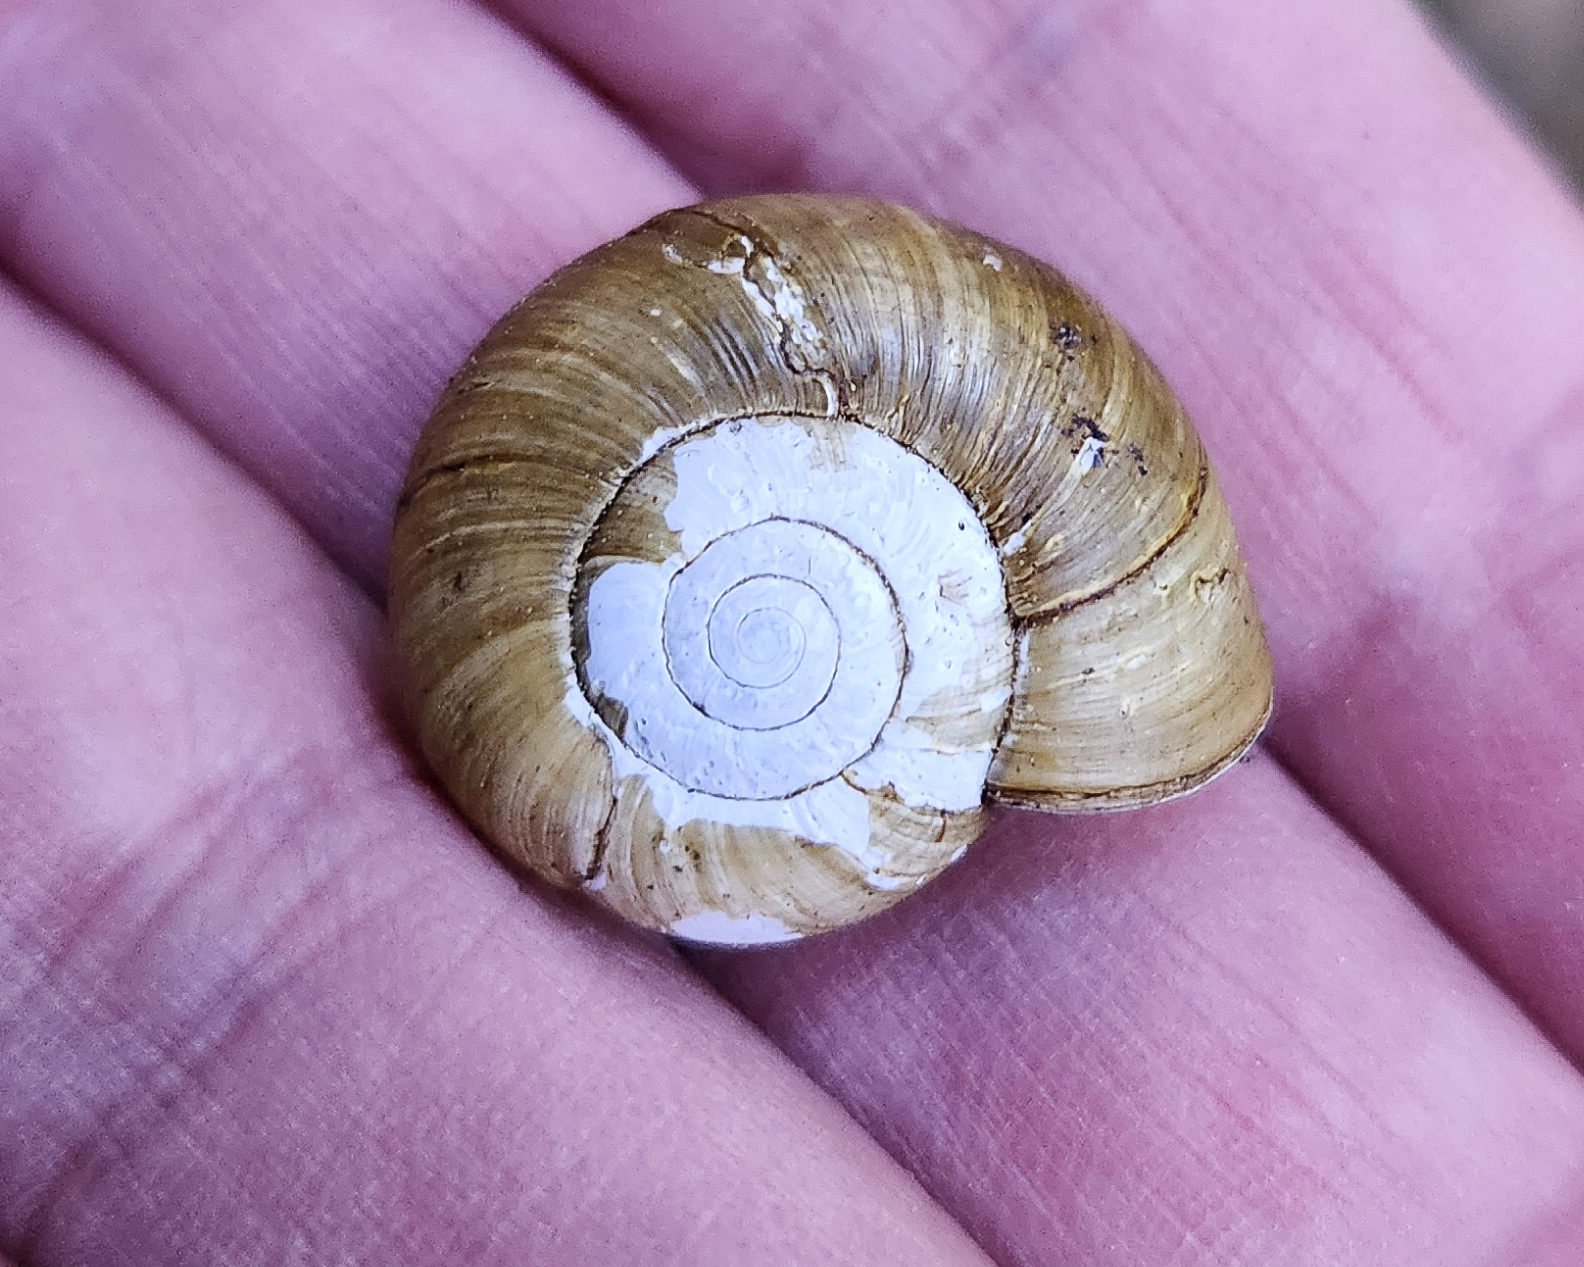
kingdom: Animalia
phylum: Mollusca
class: Gastropoda
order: Stylommatophora
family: Haplotrematidae
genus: Haplotrema
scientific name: Haplotrema vancouverense
